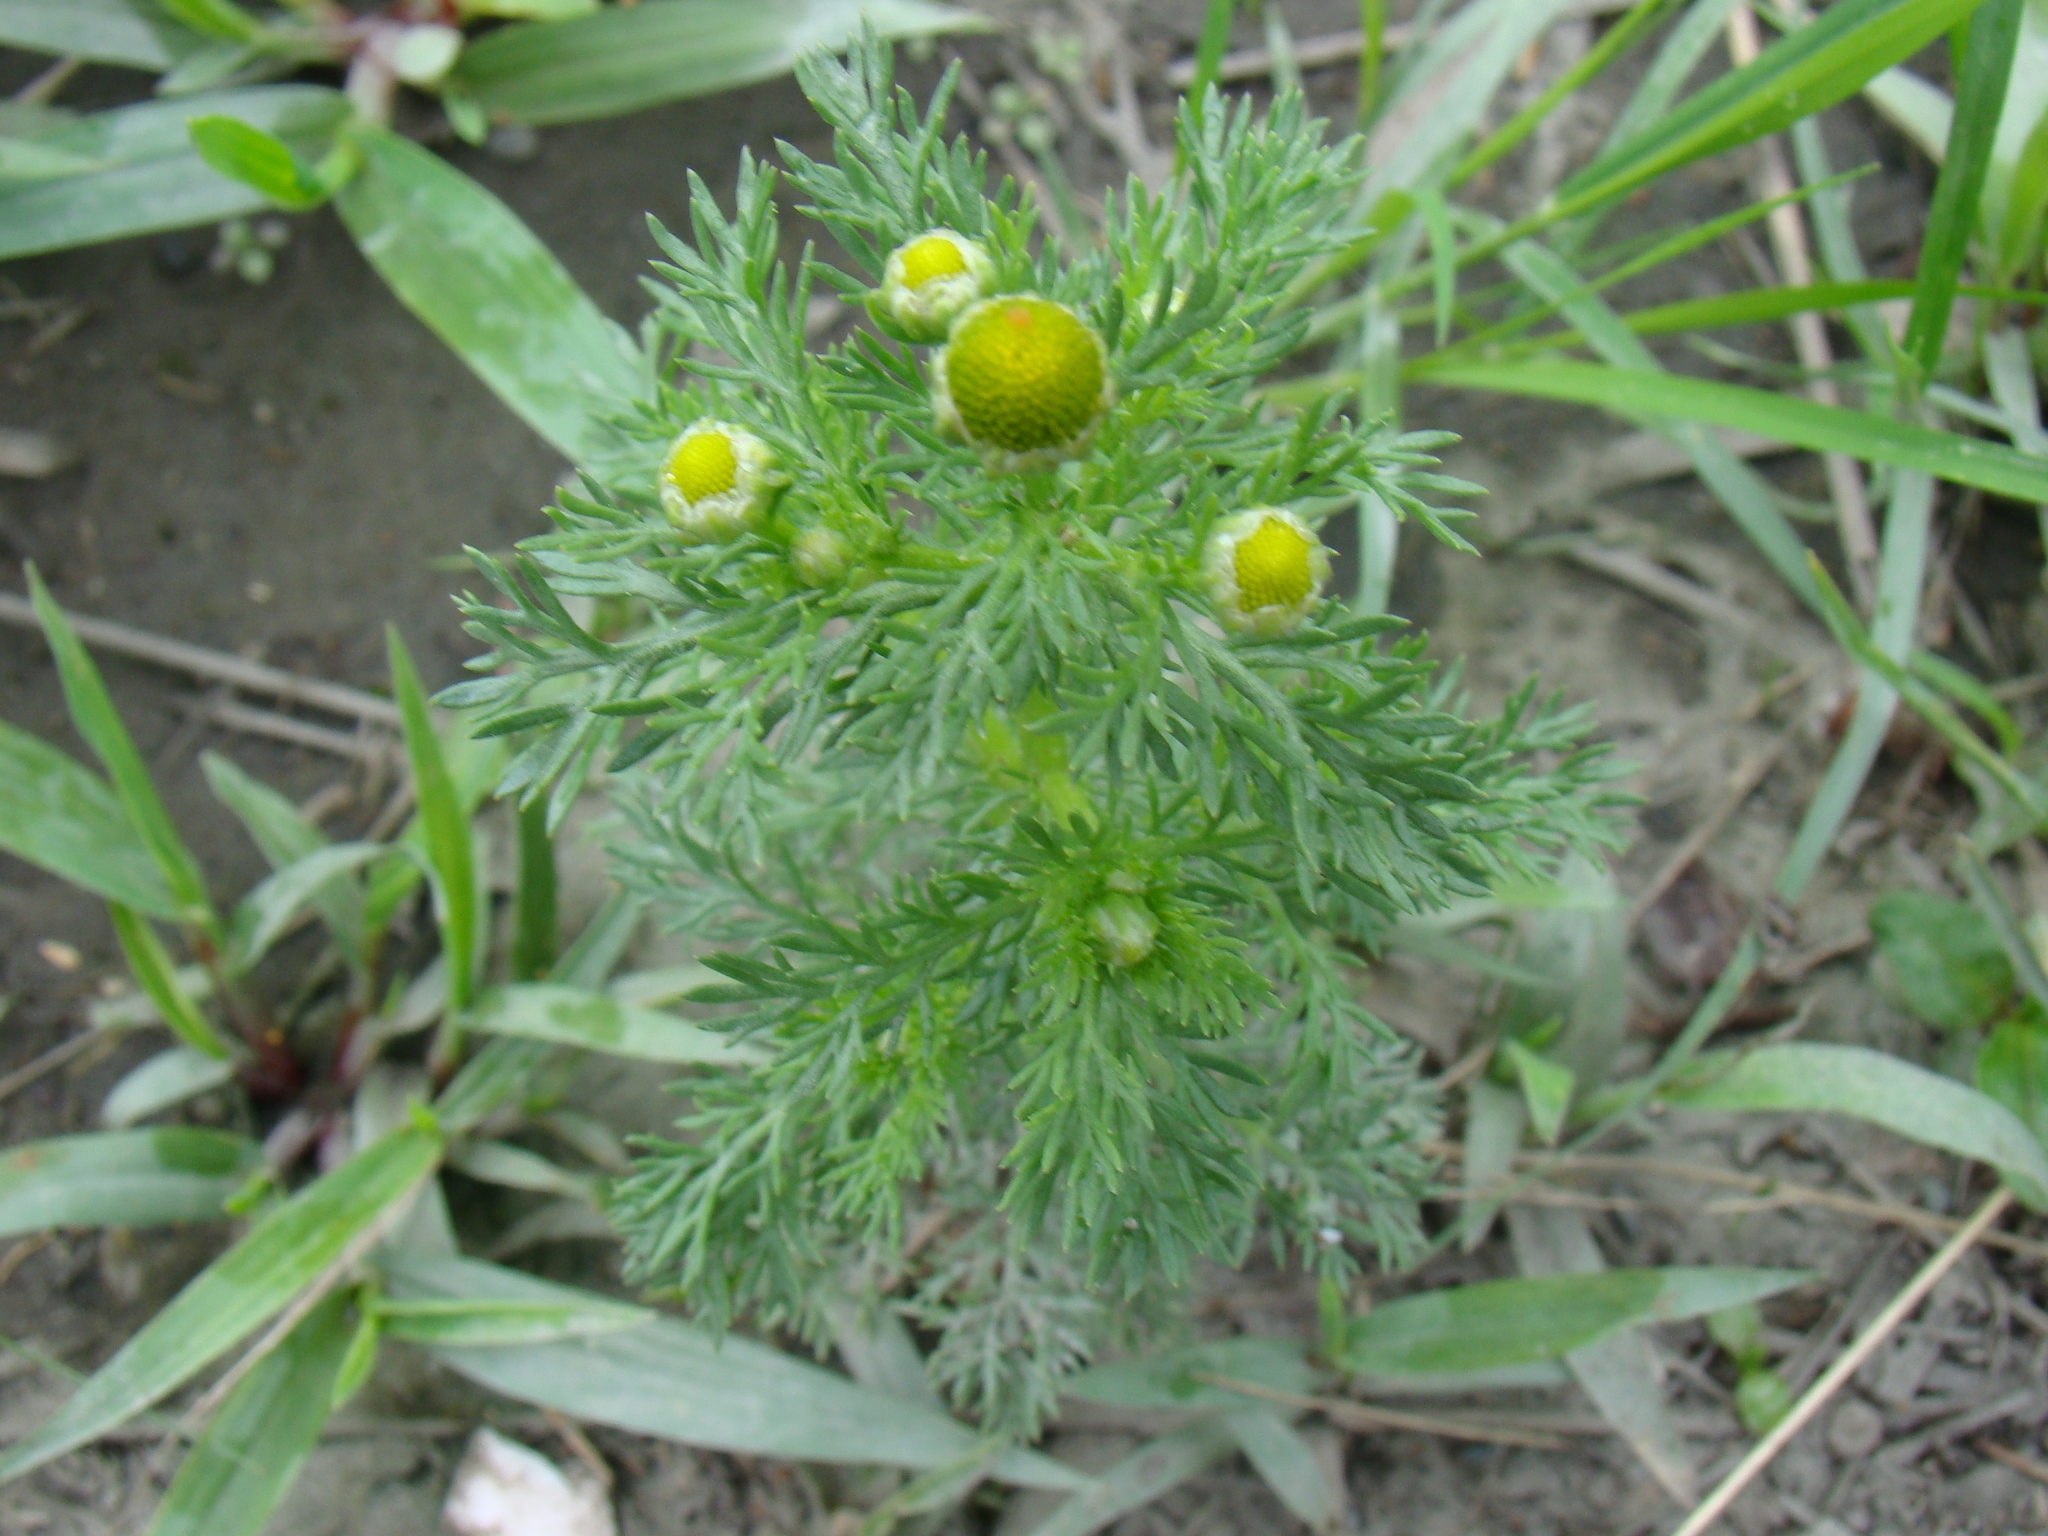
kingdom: Plantae
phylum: Tracheophyta
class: Magnoliopsida
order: Asterales
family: Asteraceae
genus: Matricaria
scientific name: Matricaria discoidea
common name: Disc mayweed
